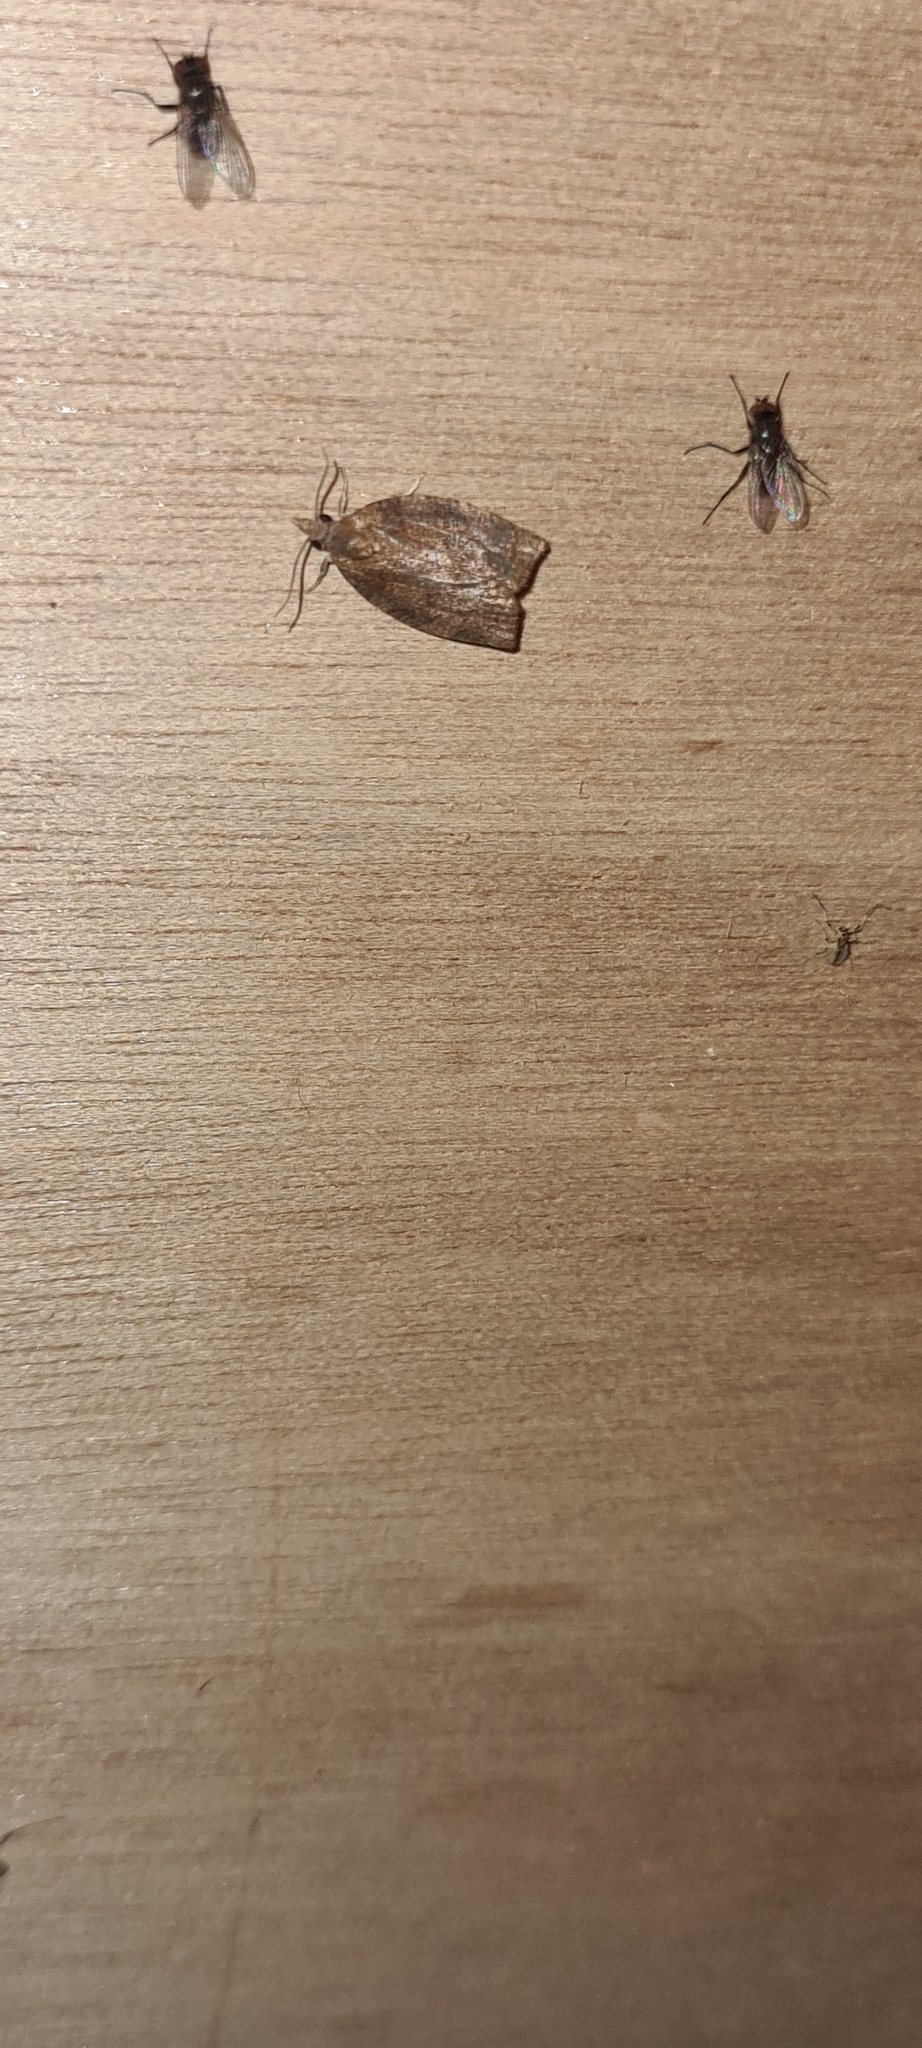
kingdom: Animalia
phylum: Arthropoda
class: Insecta
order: Lepidoptera
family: Tortricidae
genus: Pandemis
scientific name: Pandemis heparana
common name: Dark fruit-tree tortrix
